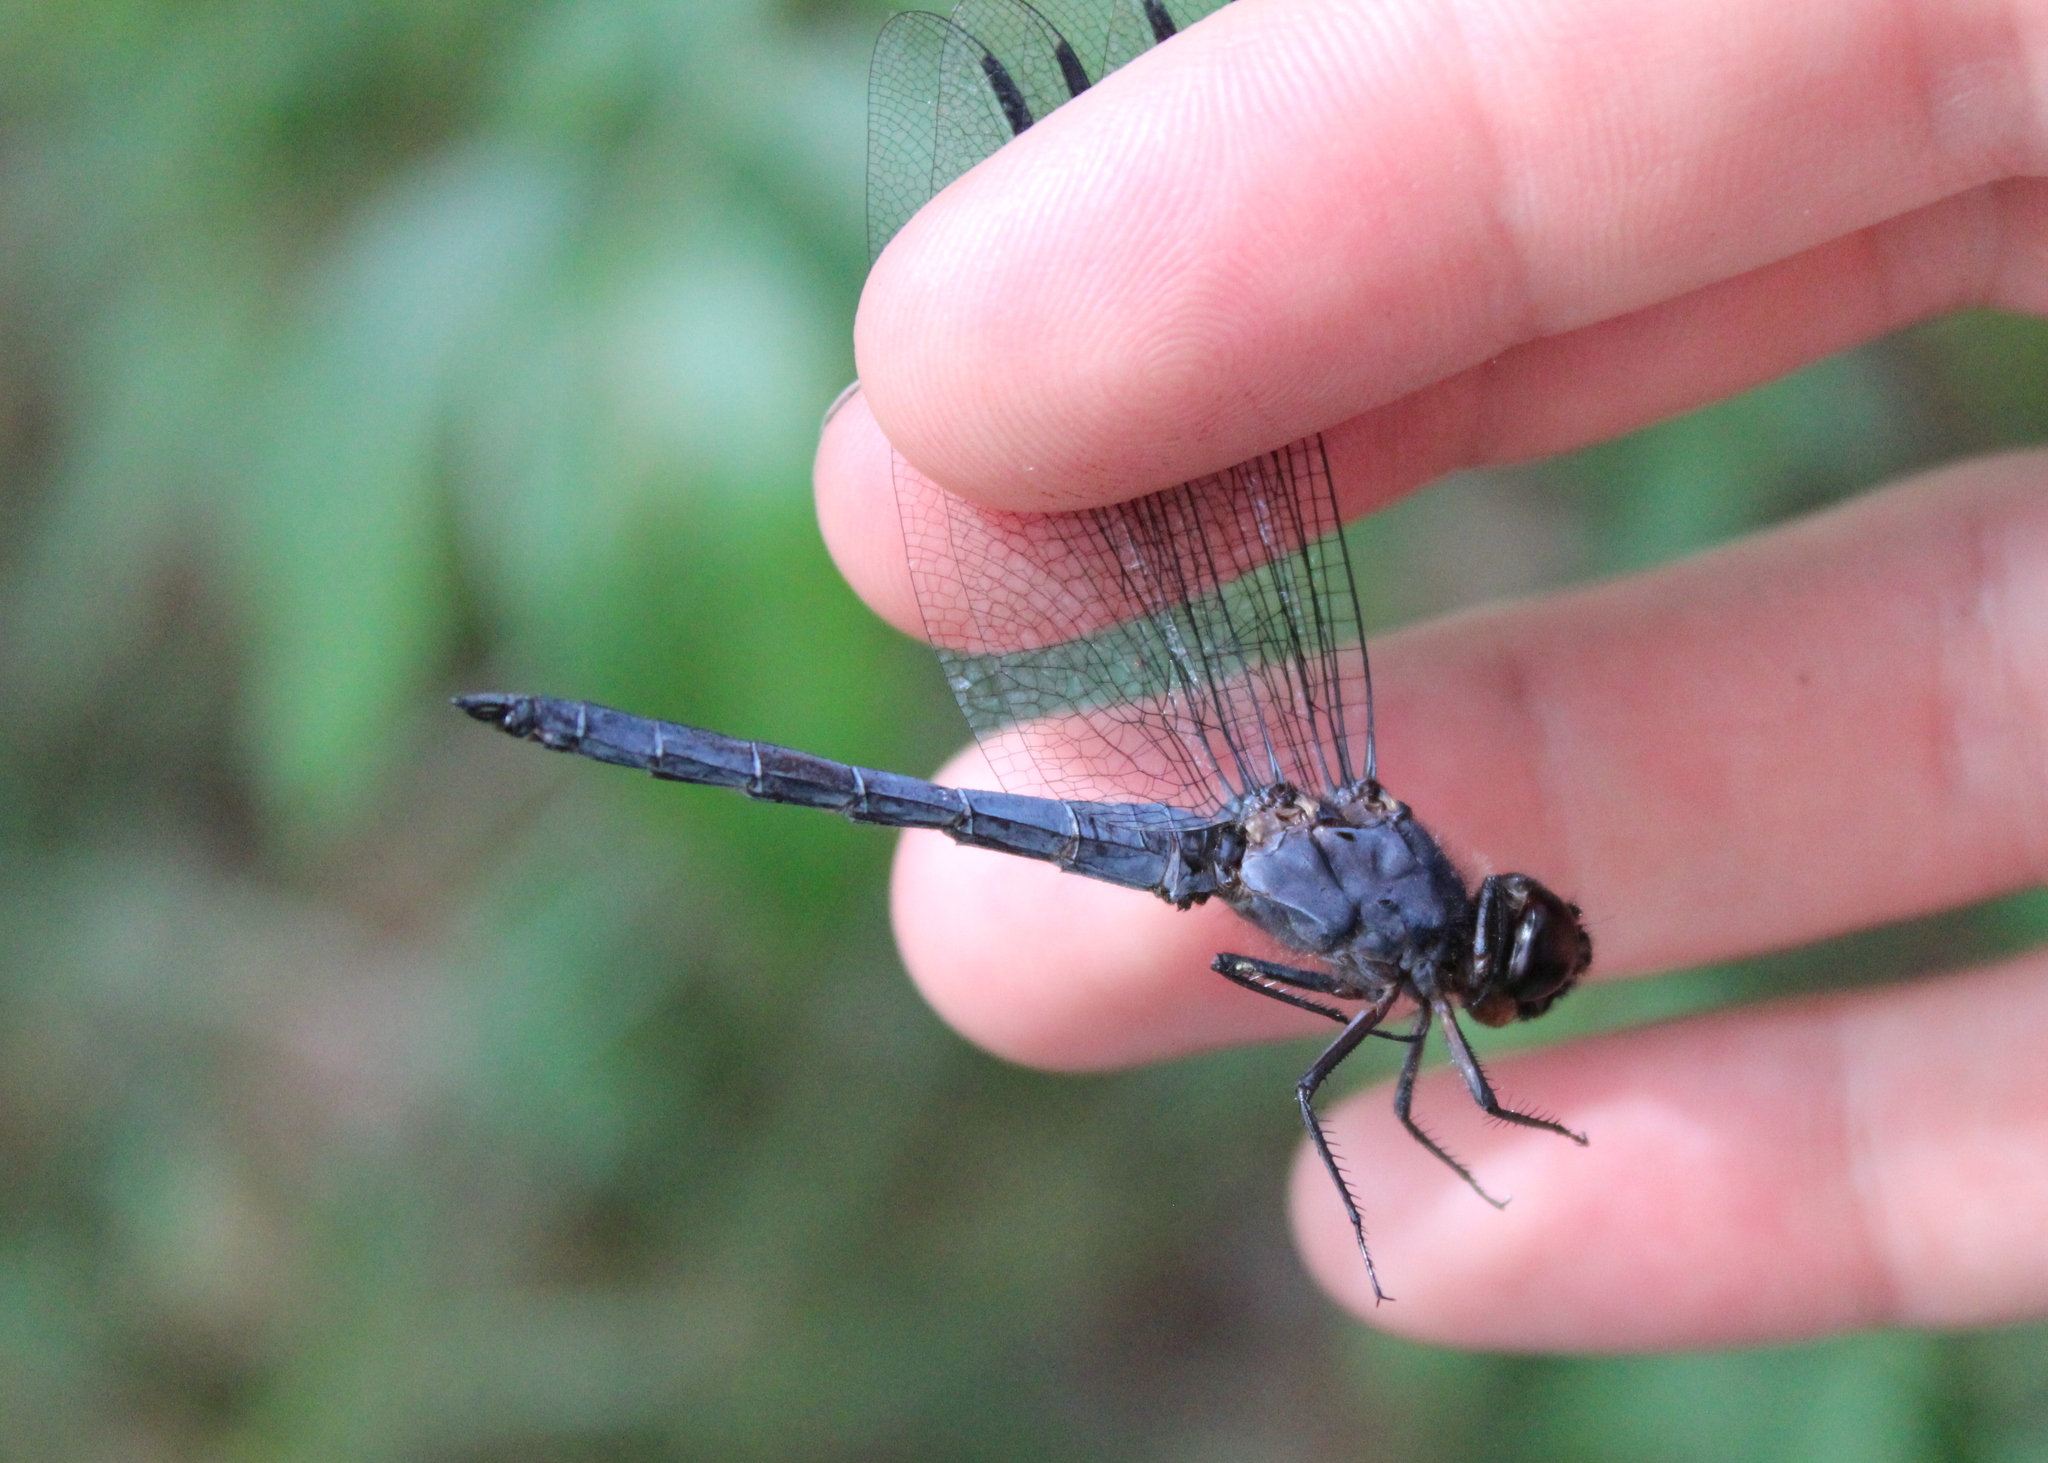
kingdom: Animalia
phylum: Arthropoda
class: Insecta
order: Odonata
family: Libellulidae
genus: Libellula
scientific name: Libellula incesta
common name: Slaty skimmer
